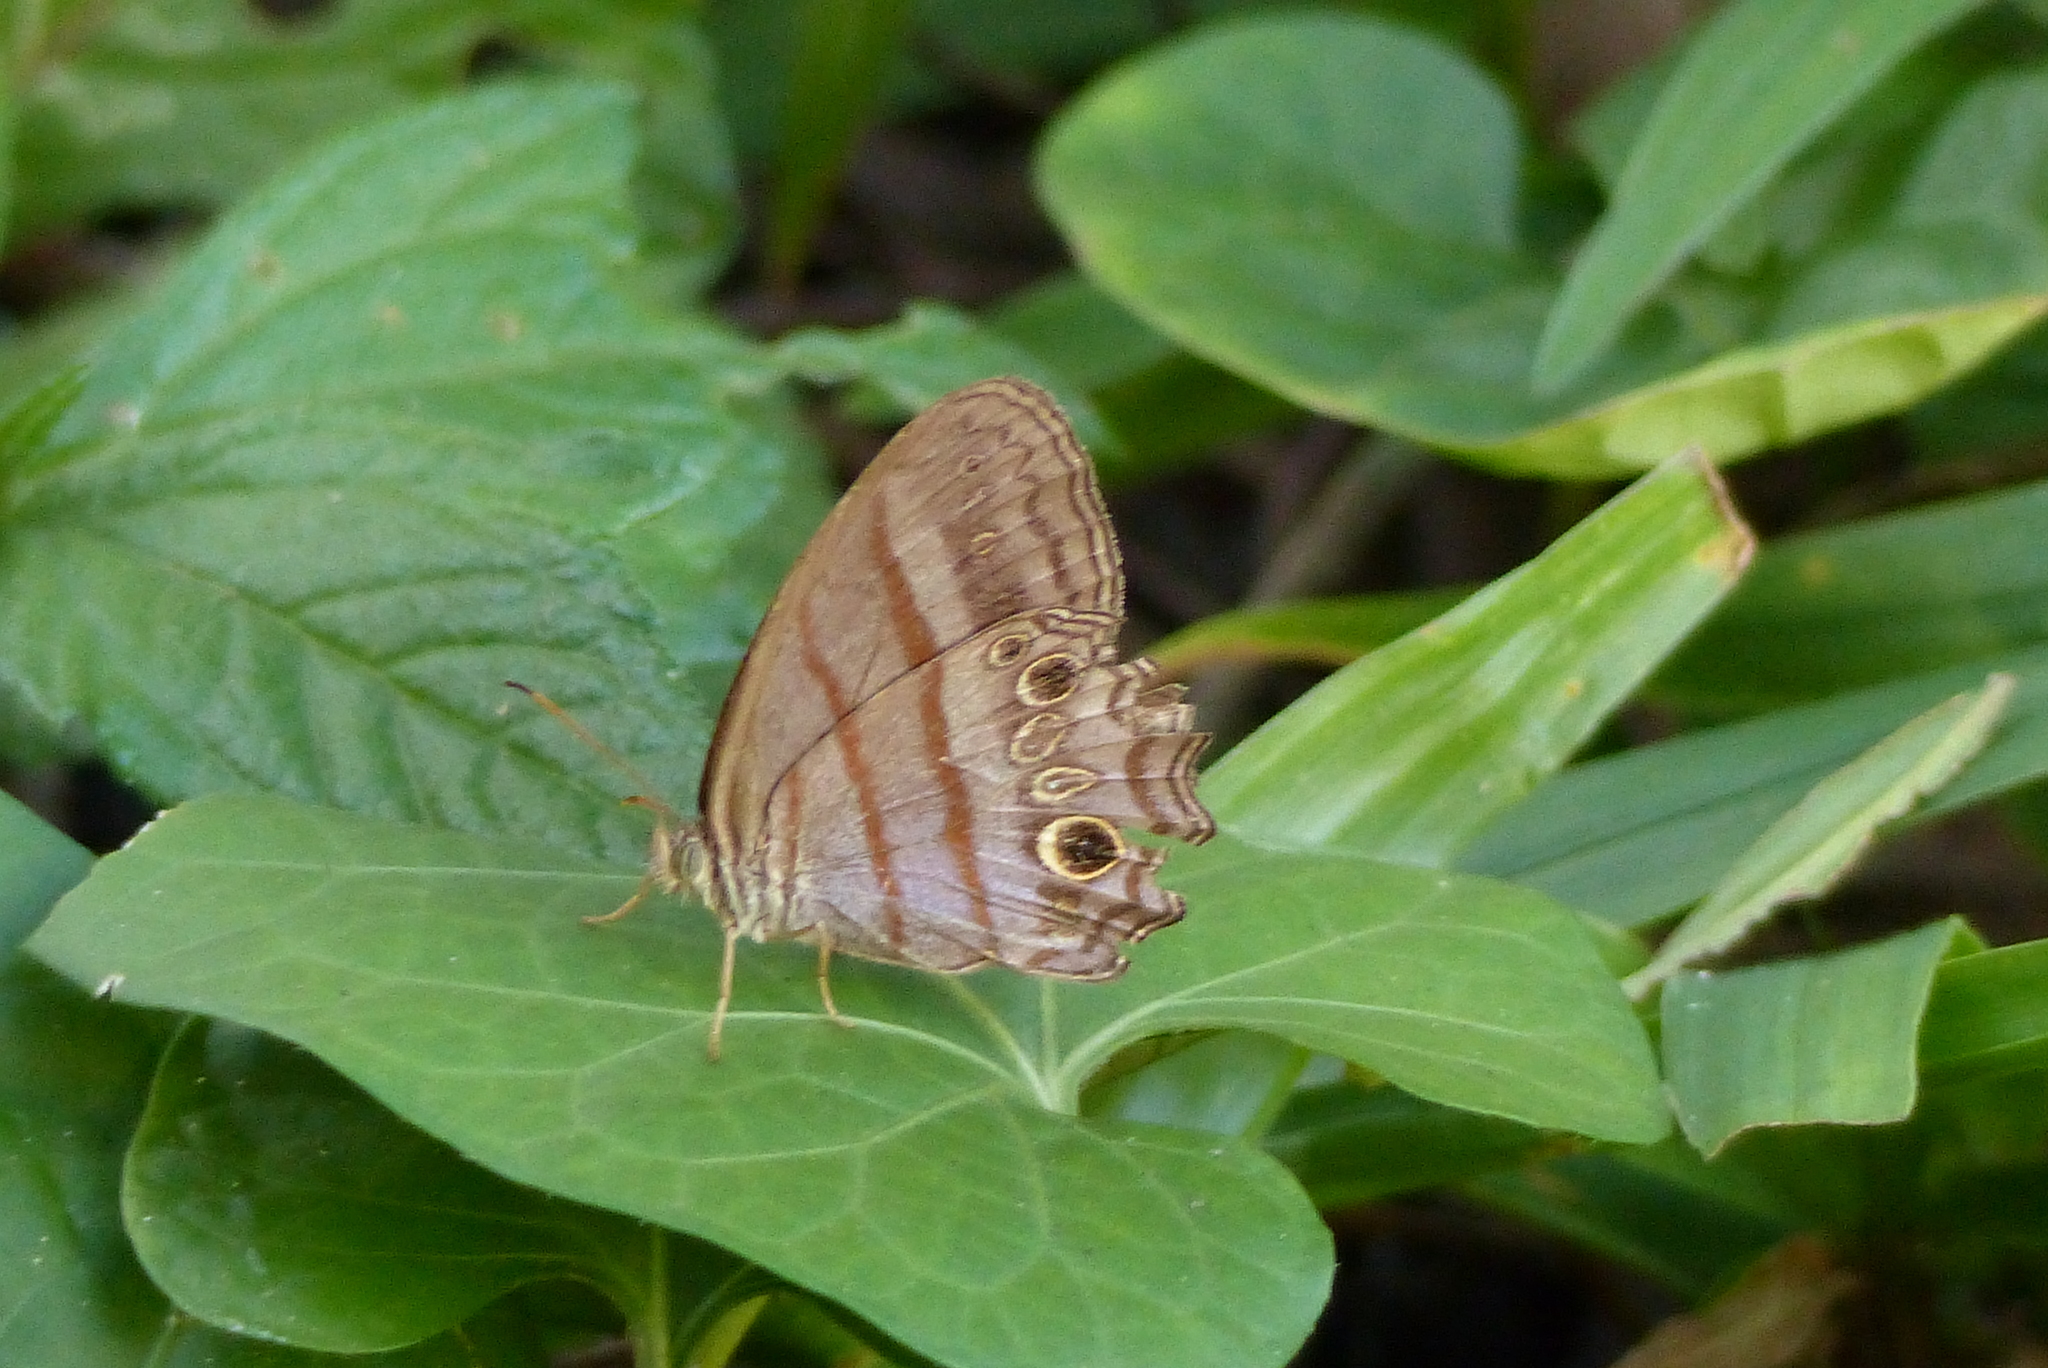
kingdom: Animalia
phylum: Arthropoda
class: Insecta
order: Lepidoptera
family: Nymphalidae
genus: Magneuptychia
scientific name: Magneuptychia libye
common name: Blue-gray satyr
